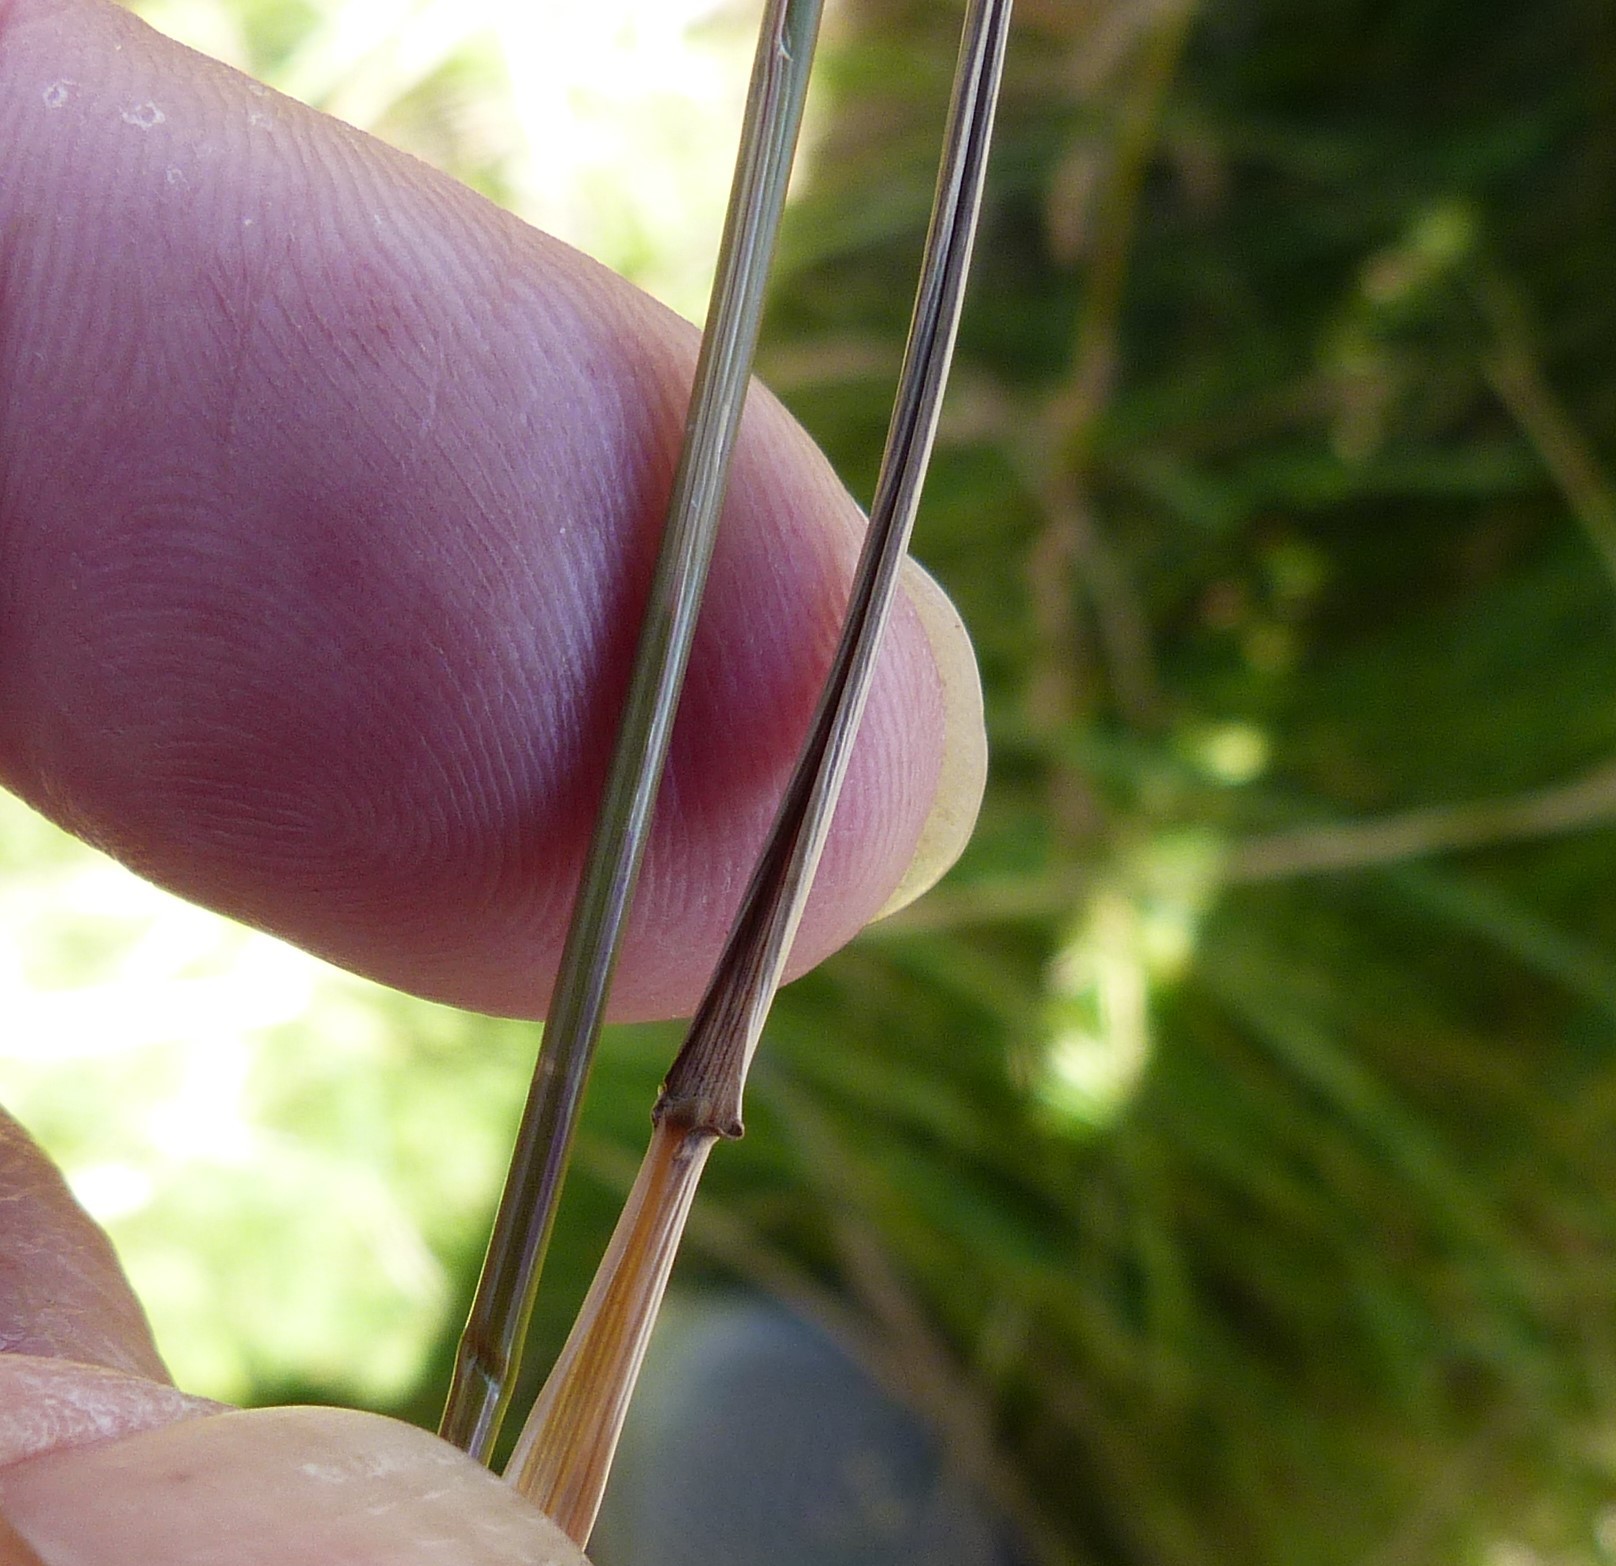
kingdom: Plantae
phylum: Tracheophyta
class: Liliopsida
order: Poales
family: Poaceae
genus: Agrostis
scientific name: Agrostis capillaris
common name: Colonial bentgrass
